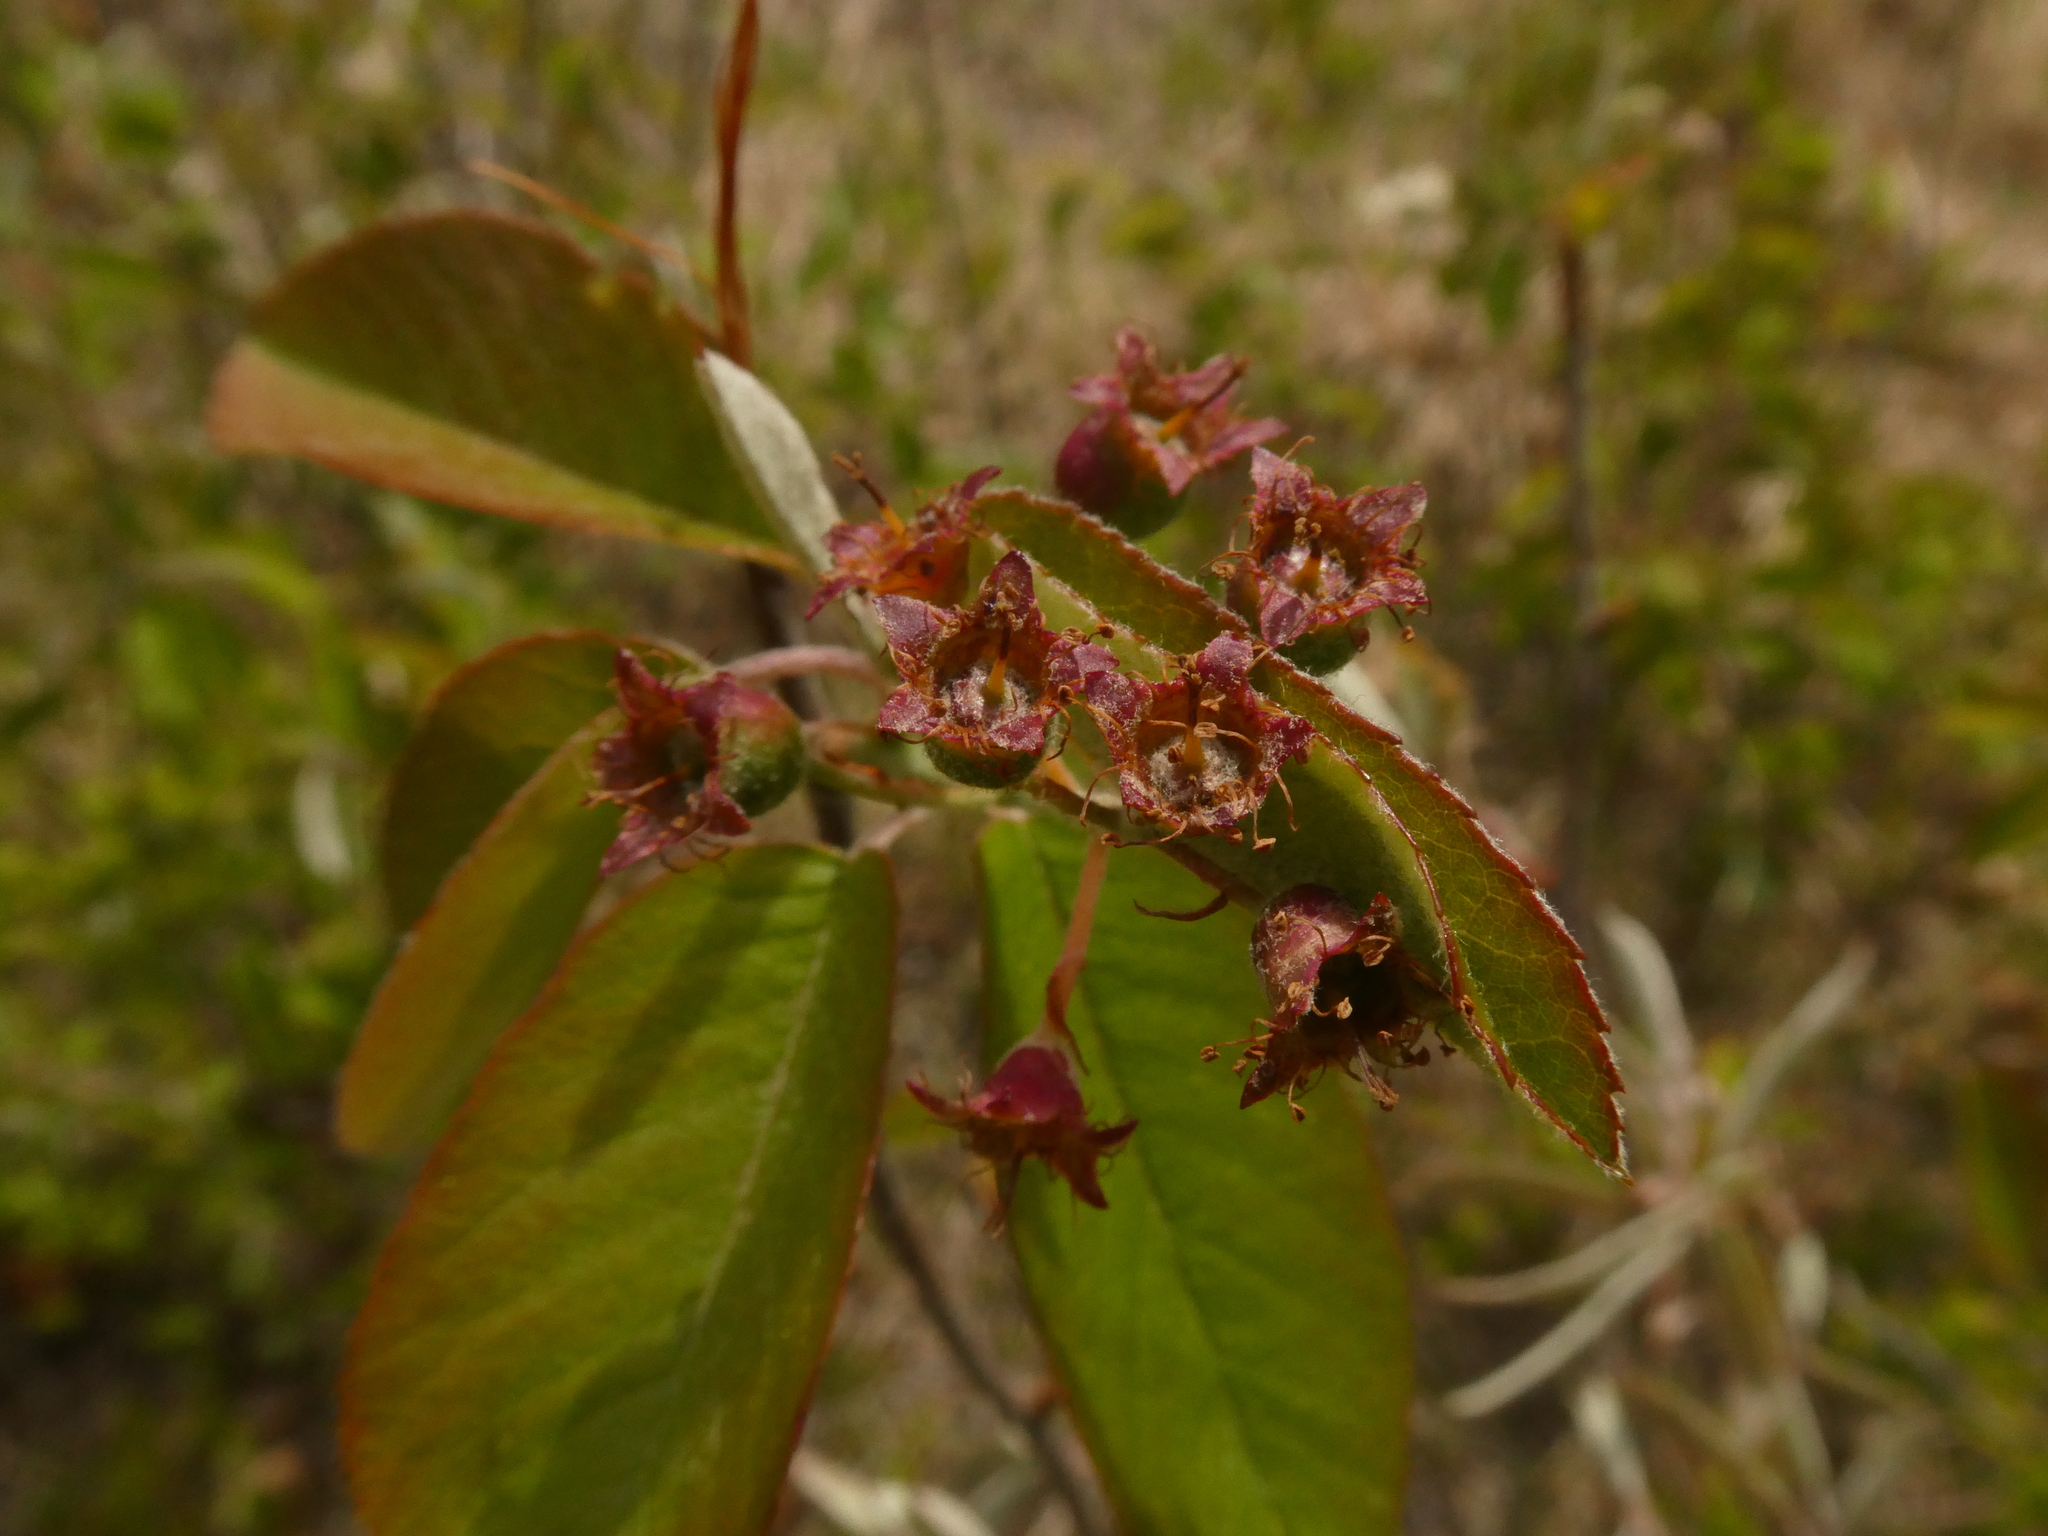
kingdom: Plantae
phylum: Tracheophyta
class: Magnoliopsida
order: Rosales
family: Rosaceae
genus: Amelanchier
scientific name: Amelanchier
